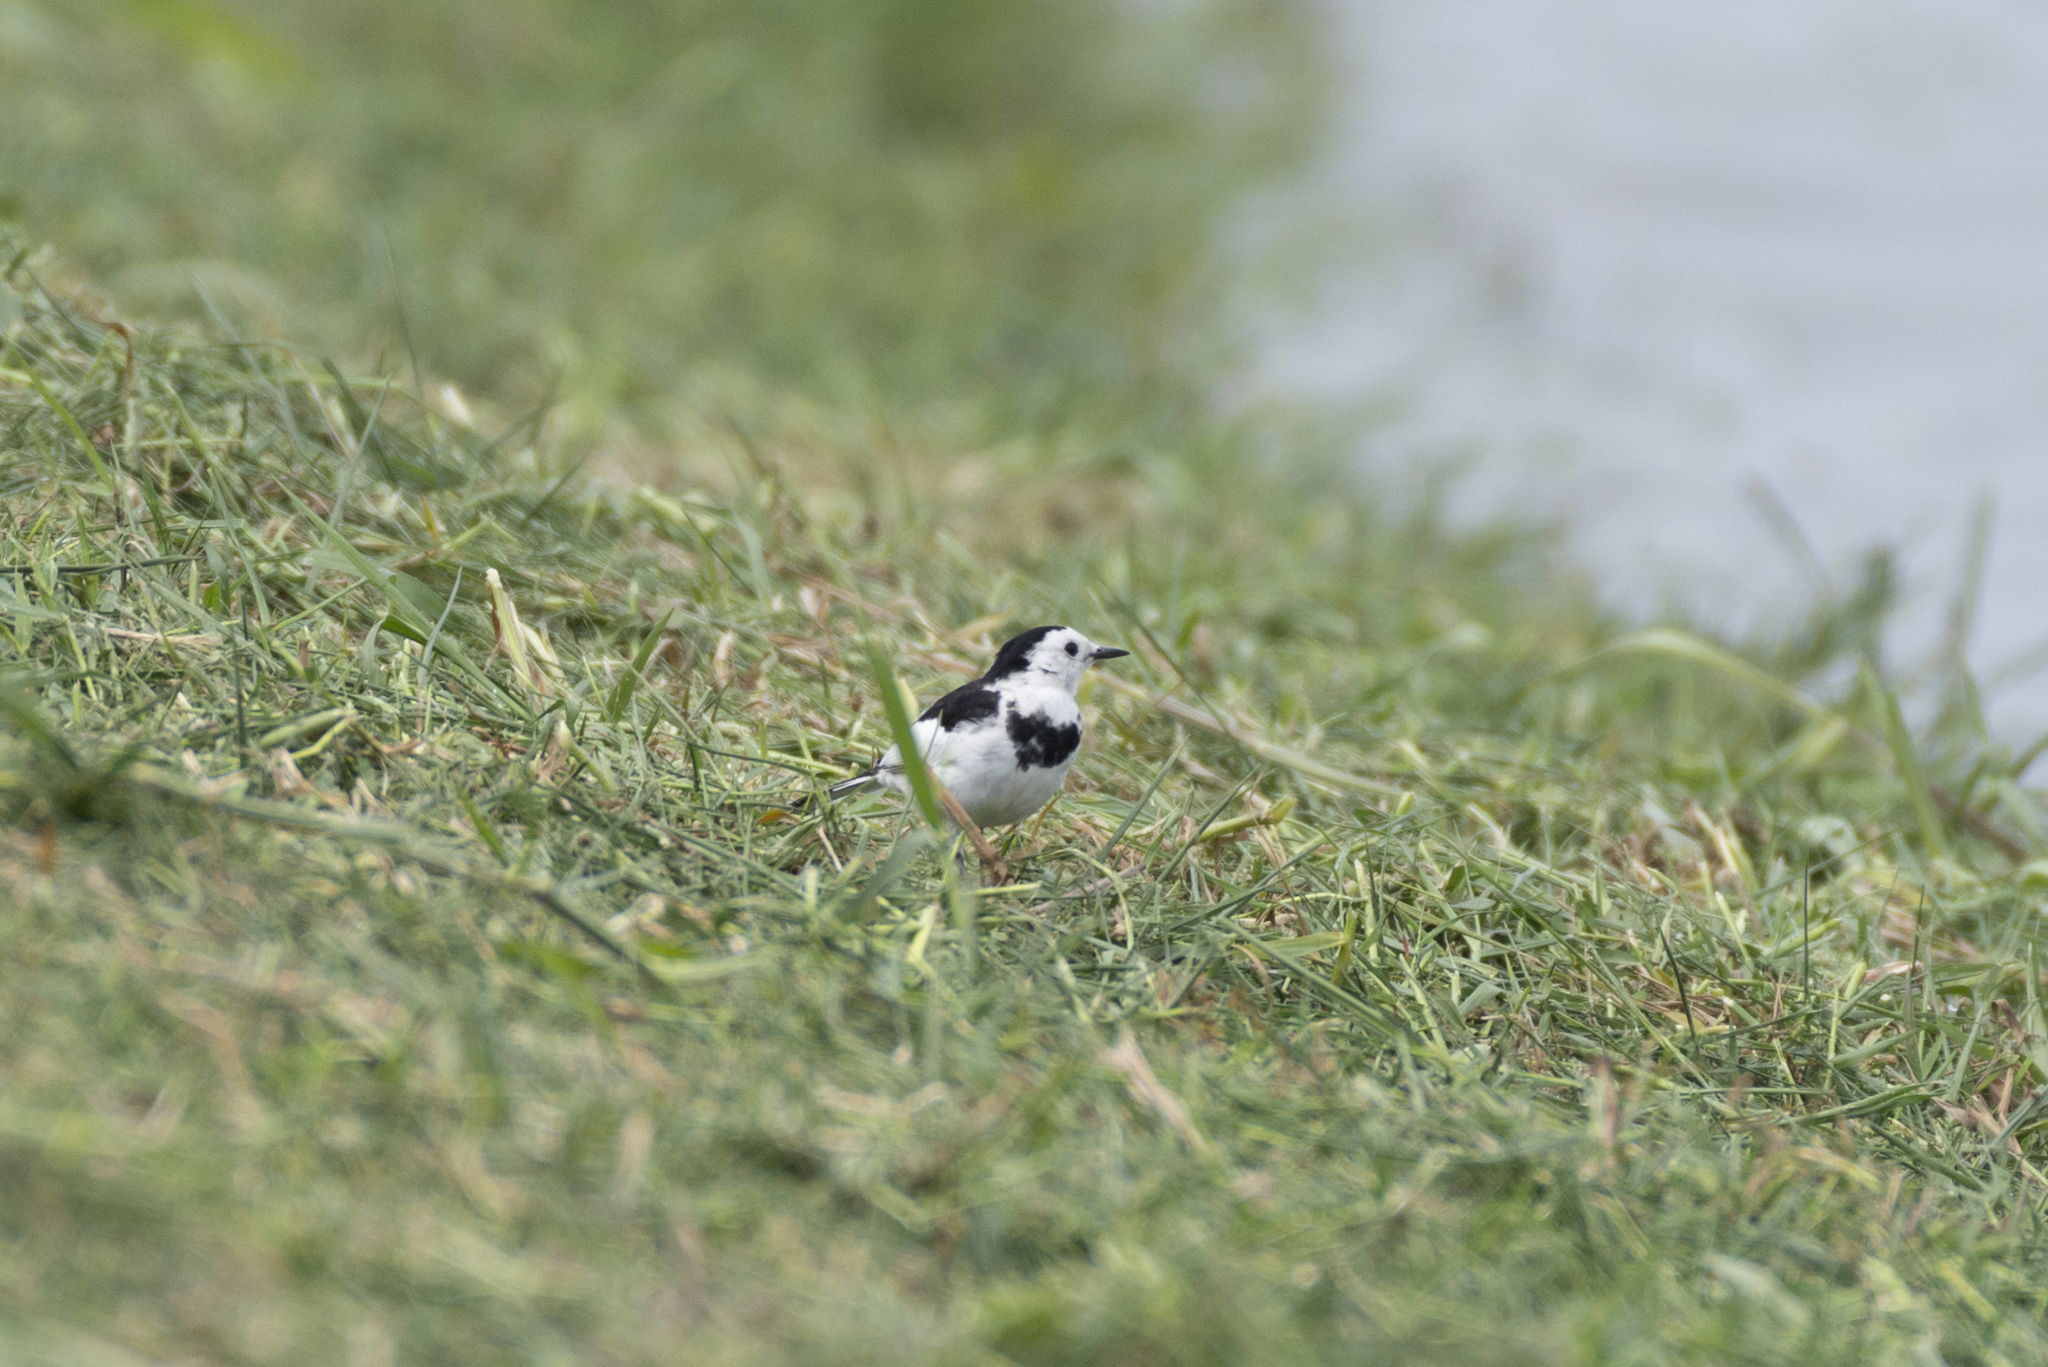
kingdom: Animalia
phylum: Chordata
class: Aves
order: Passeriformes
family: Motacillidae
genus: Motacilla
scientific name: Motacilla alba
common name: White wagtail
